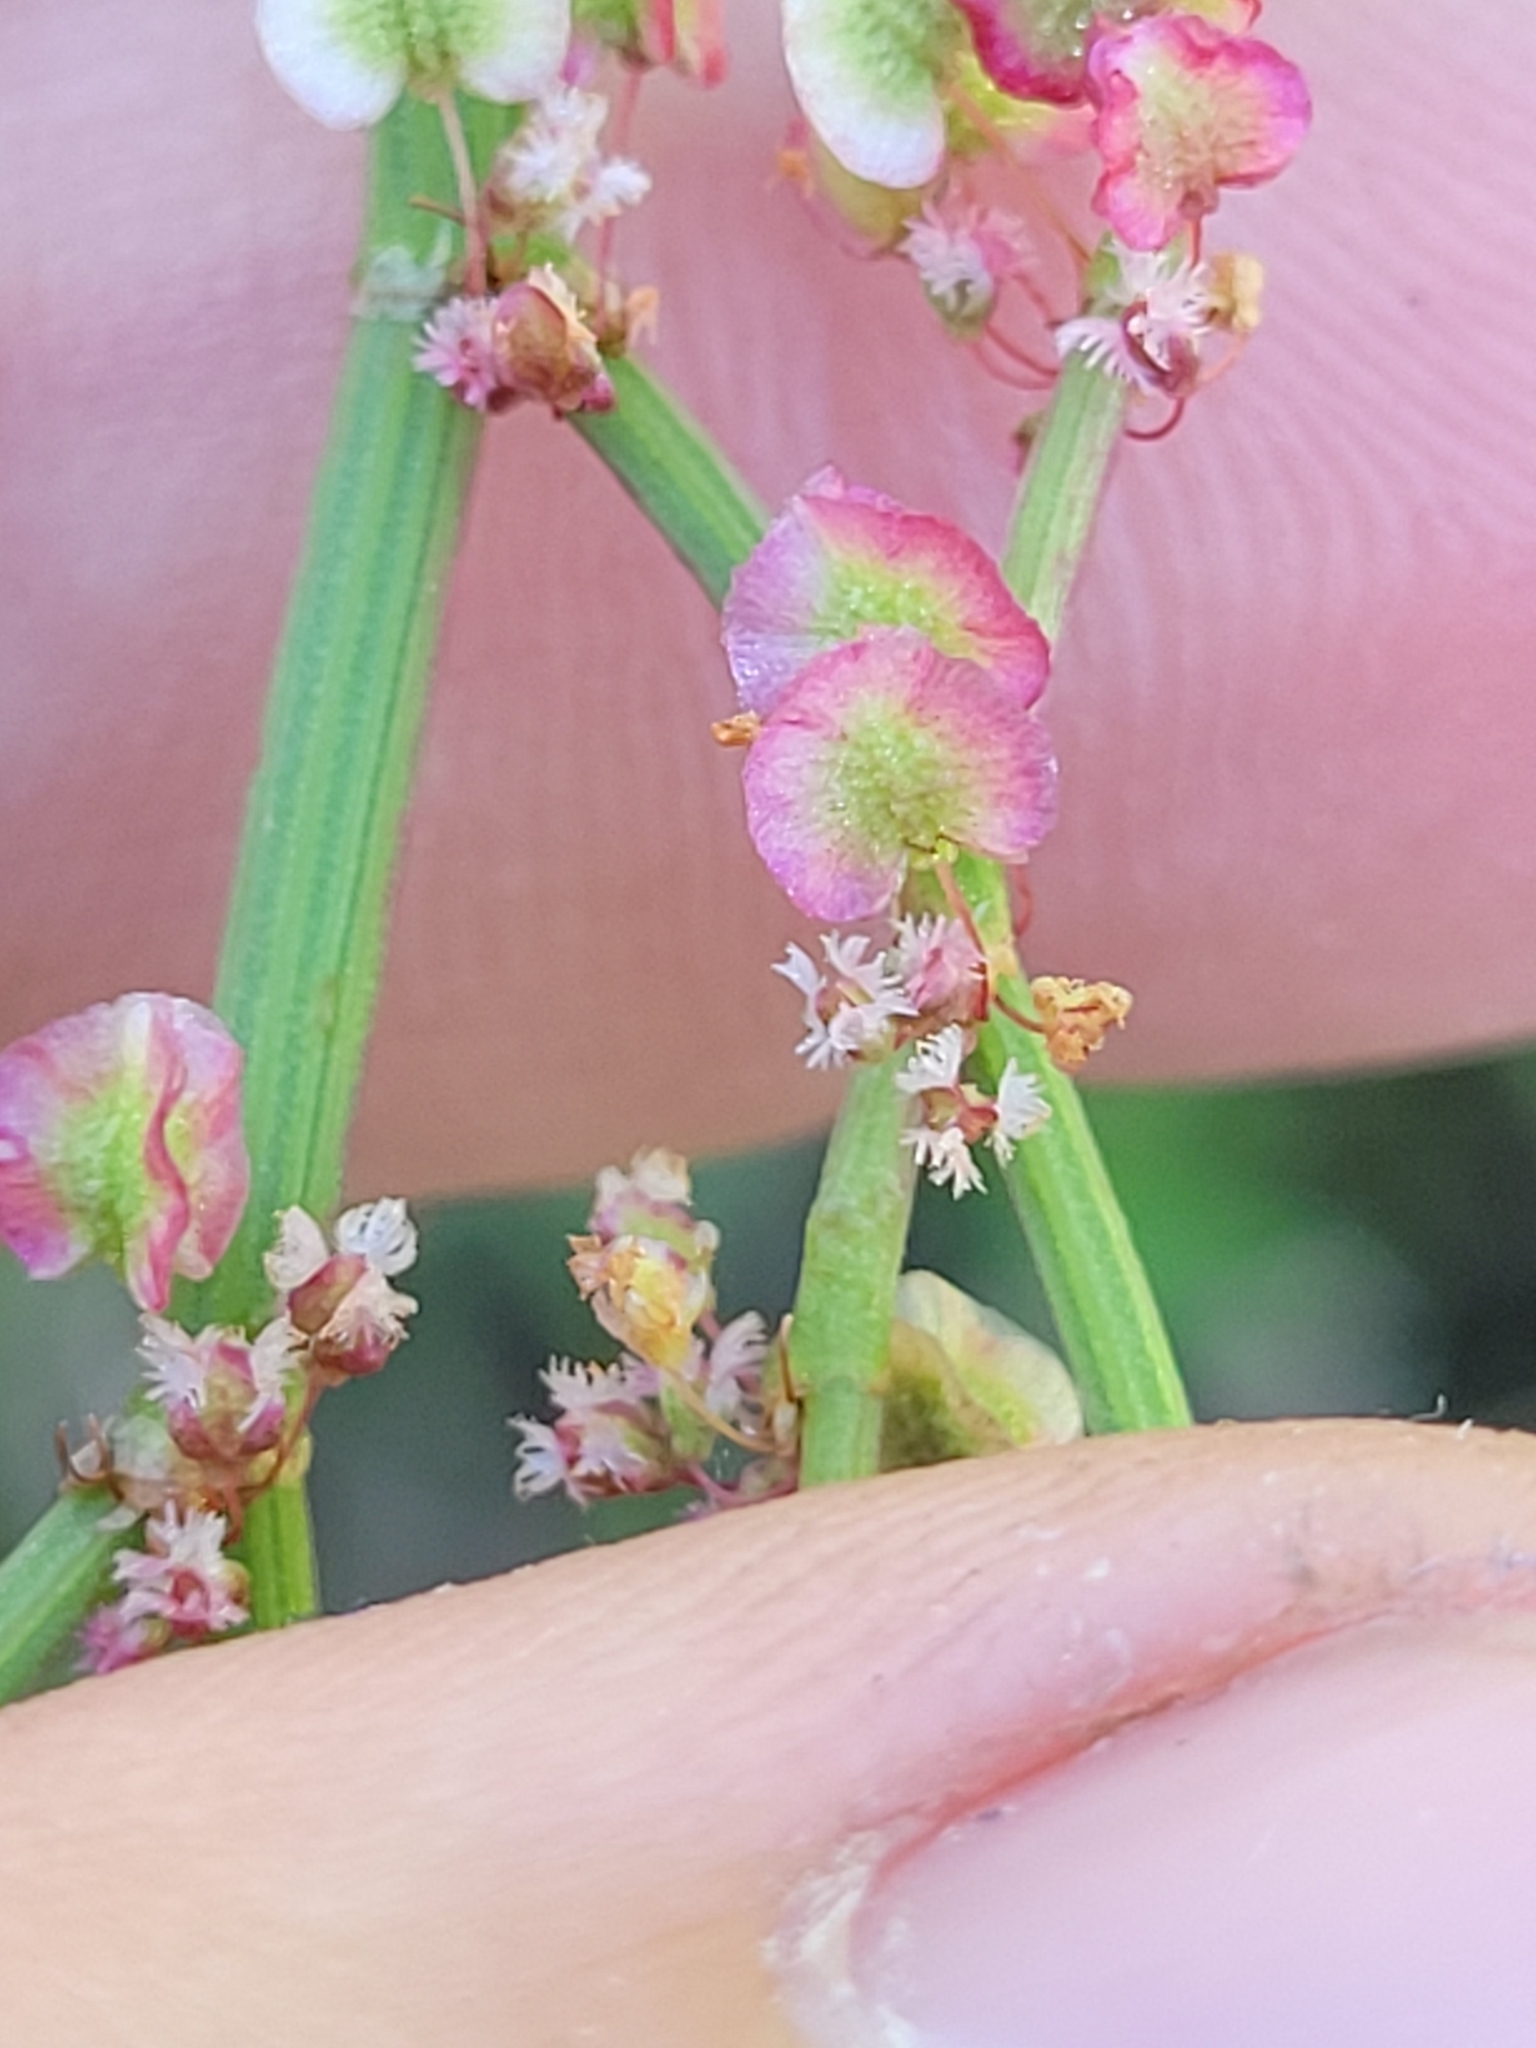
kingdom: Plantae
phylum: Tracheophyta
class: Magnoliopsida
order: Caryophyllales
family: Polygonaceae
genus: Rumex
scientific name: Rumex hastatulus
